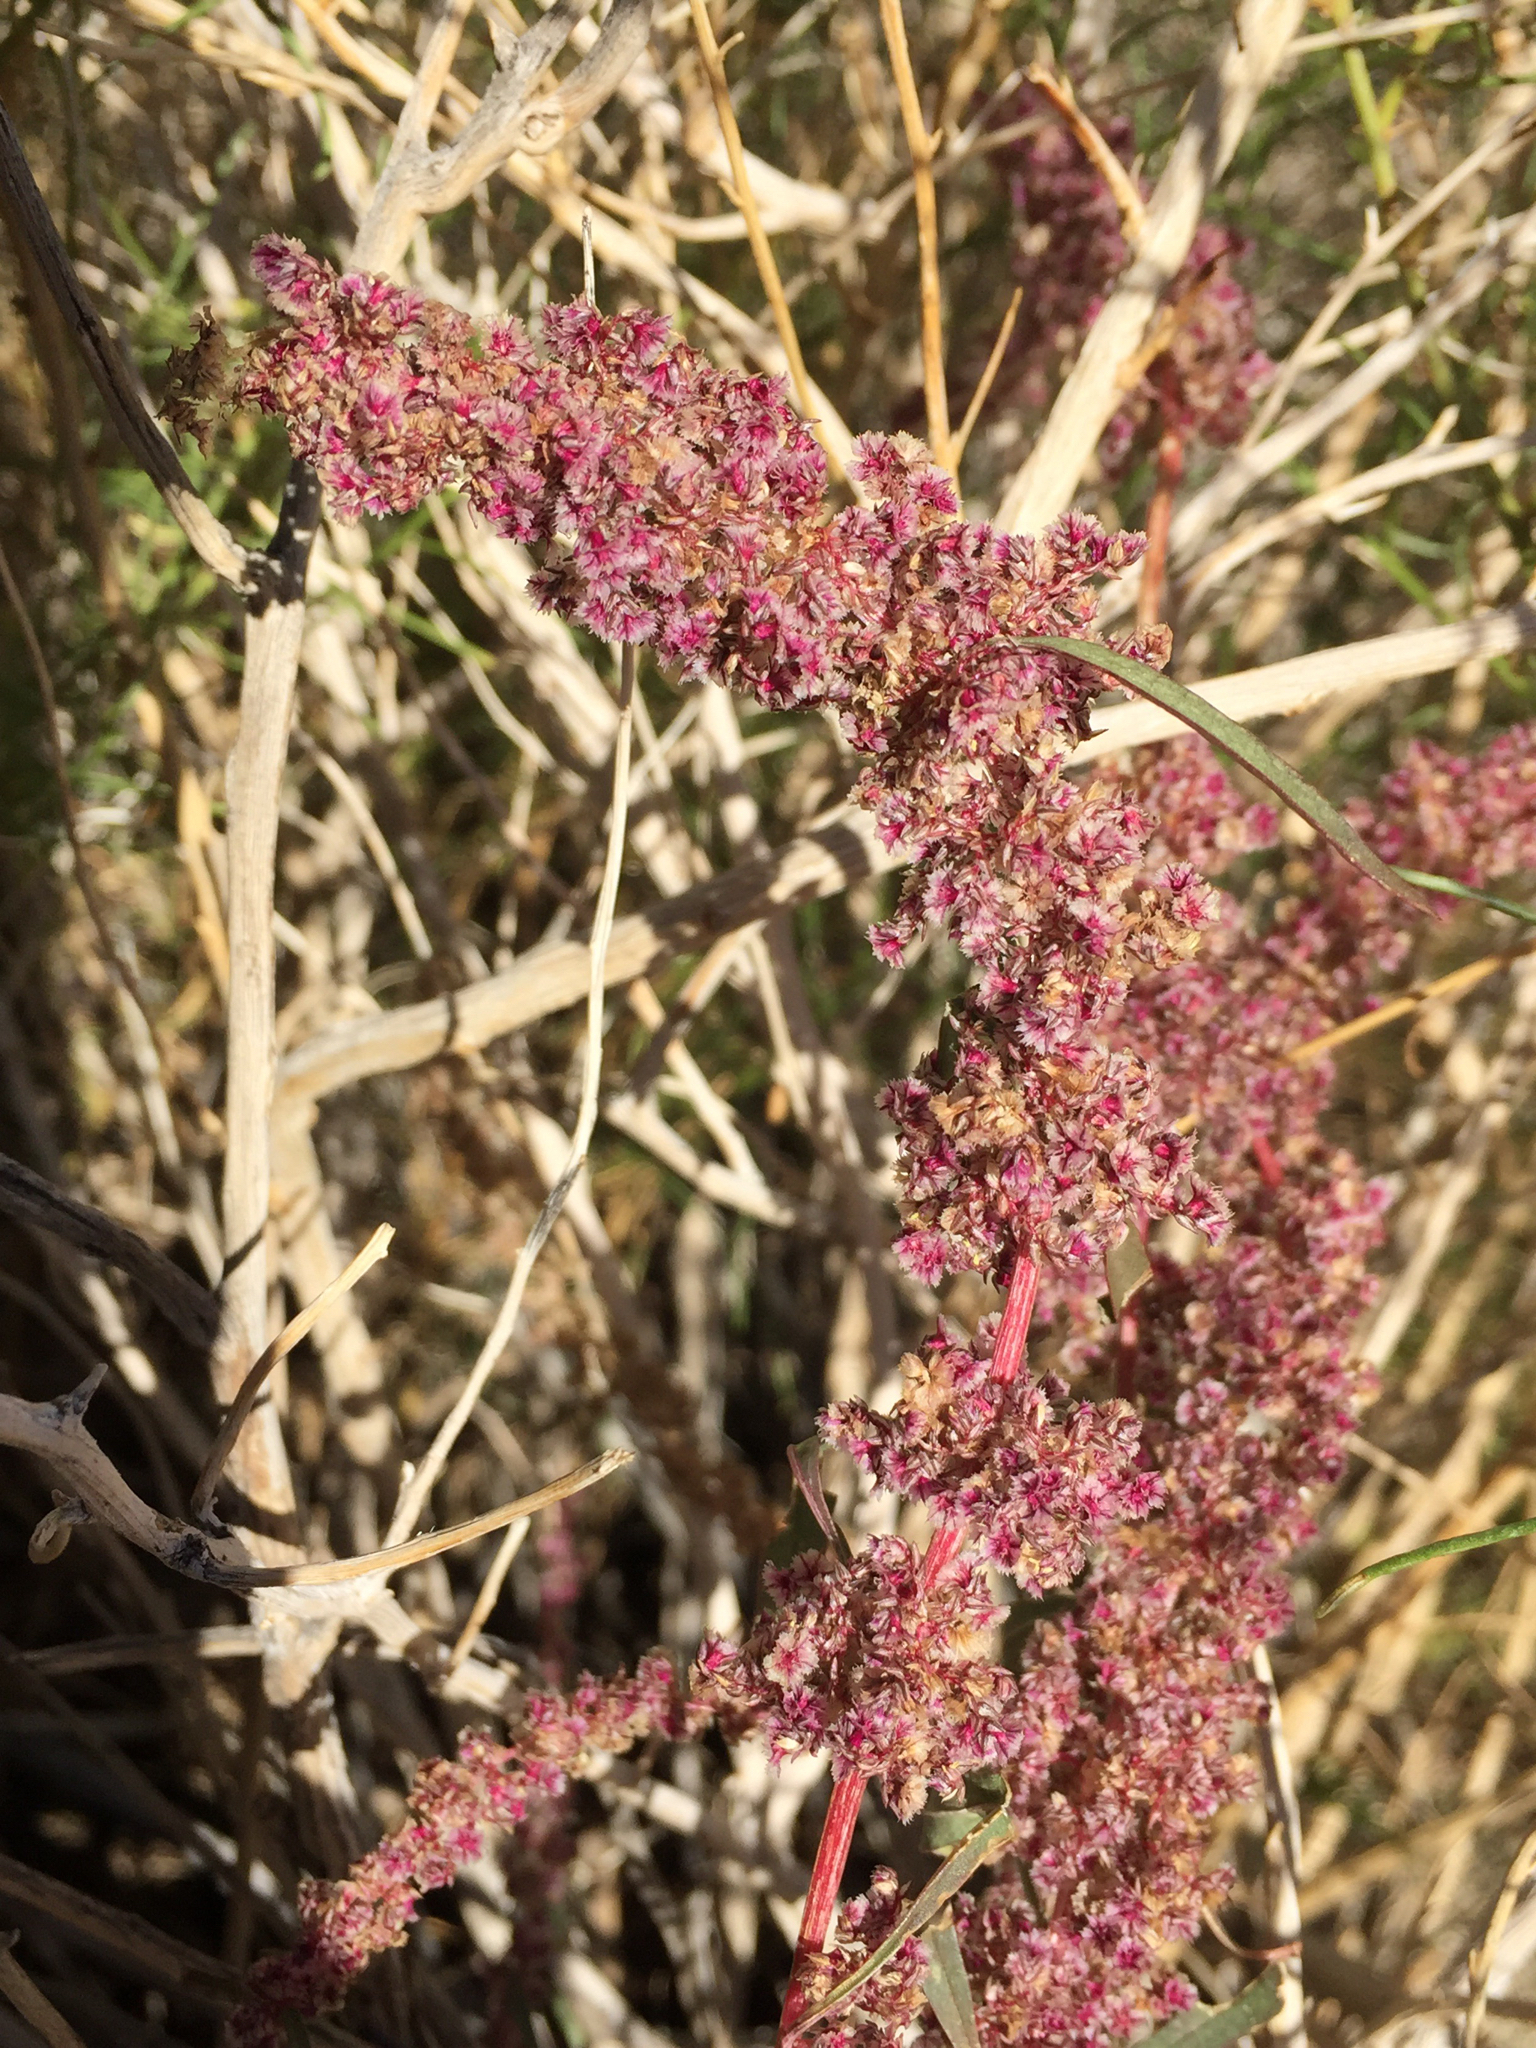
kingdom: Plantae
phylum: Tracheophyta
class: Magnoliopsida
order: Caryophyllales
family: Amaranthaceae
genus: Amaranthus
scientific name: Amaranthus fimbriatus
